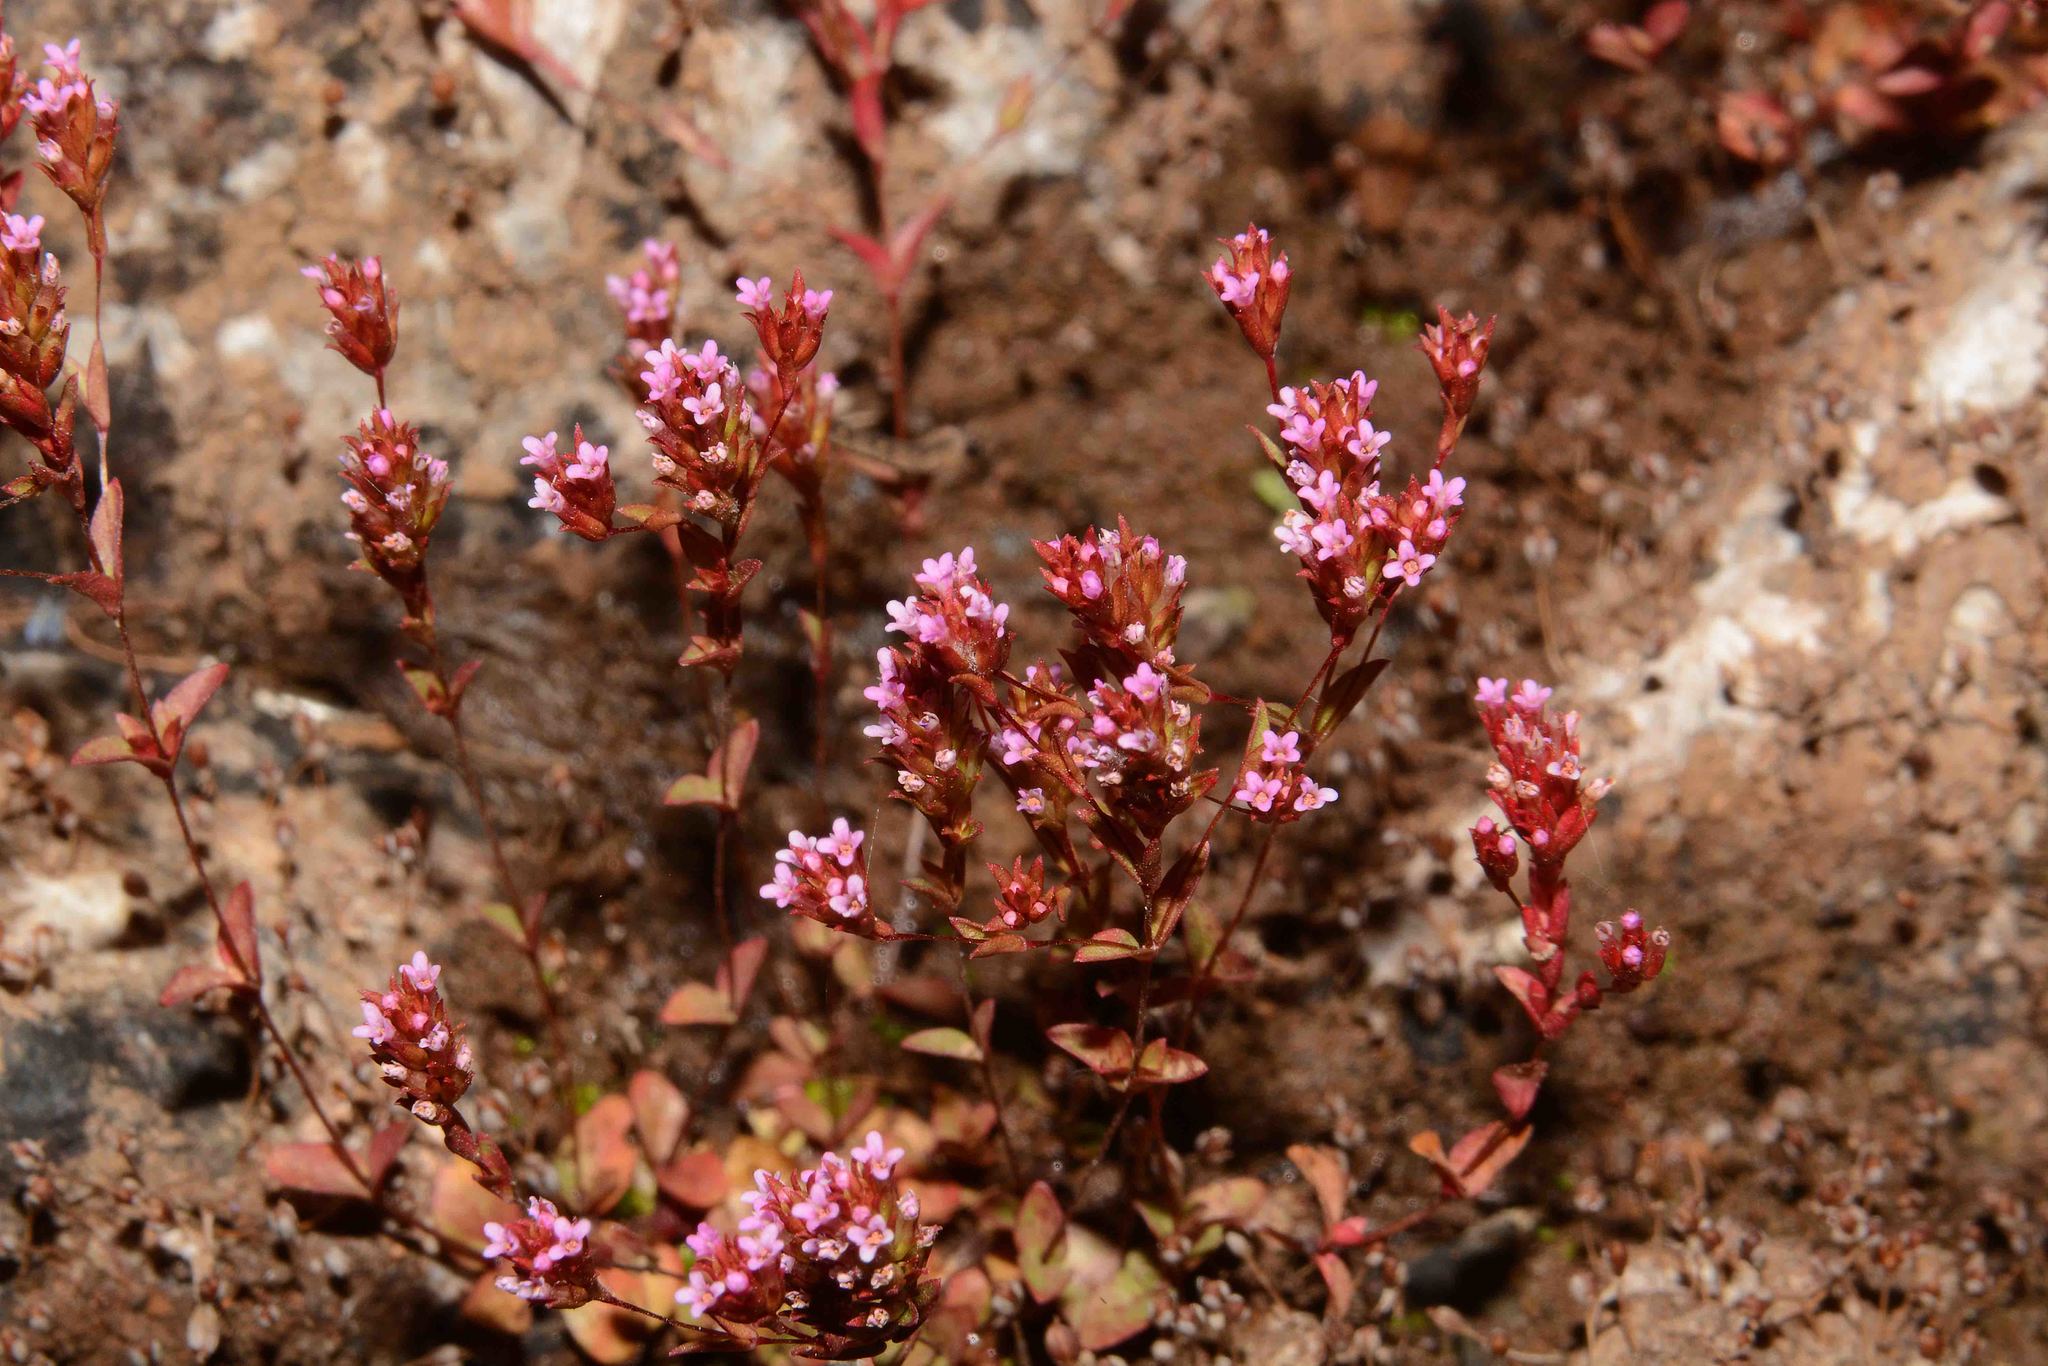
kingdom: Plantae
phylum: Tracheophyta
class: Magnoliopsida
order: Myrtales
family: Lythraceae
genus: Rotala
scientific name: Rotala serpyllifolia
